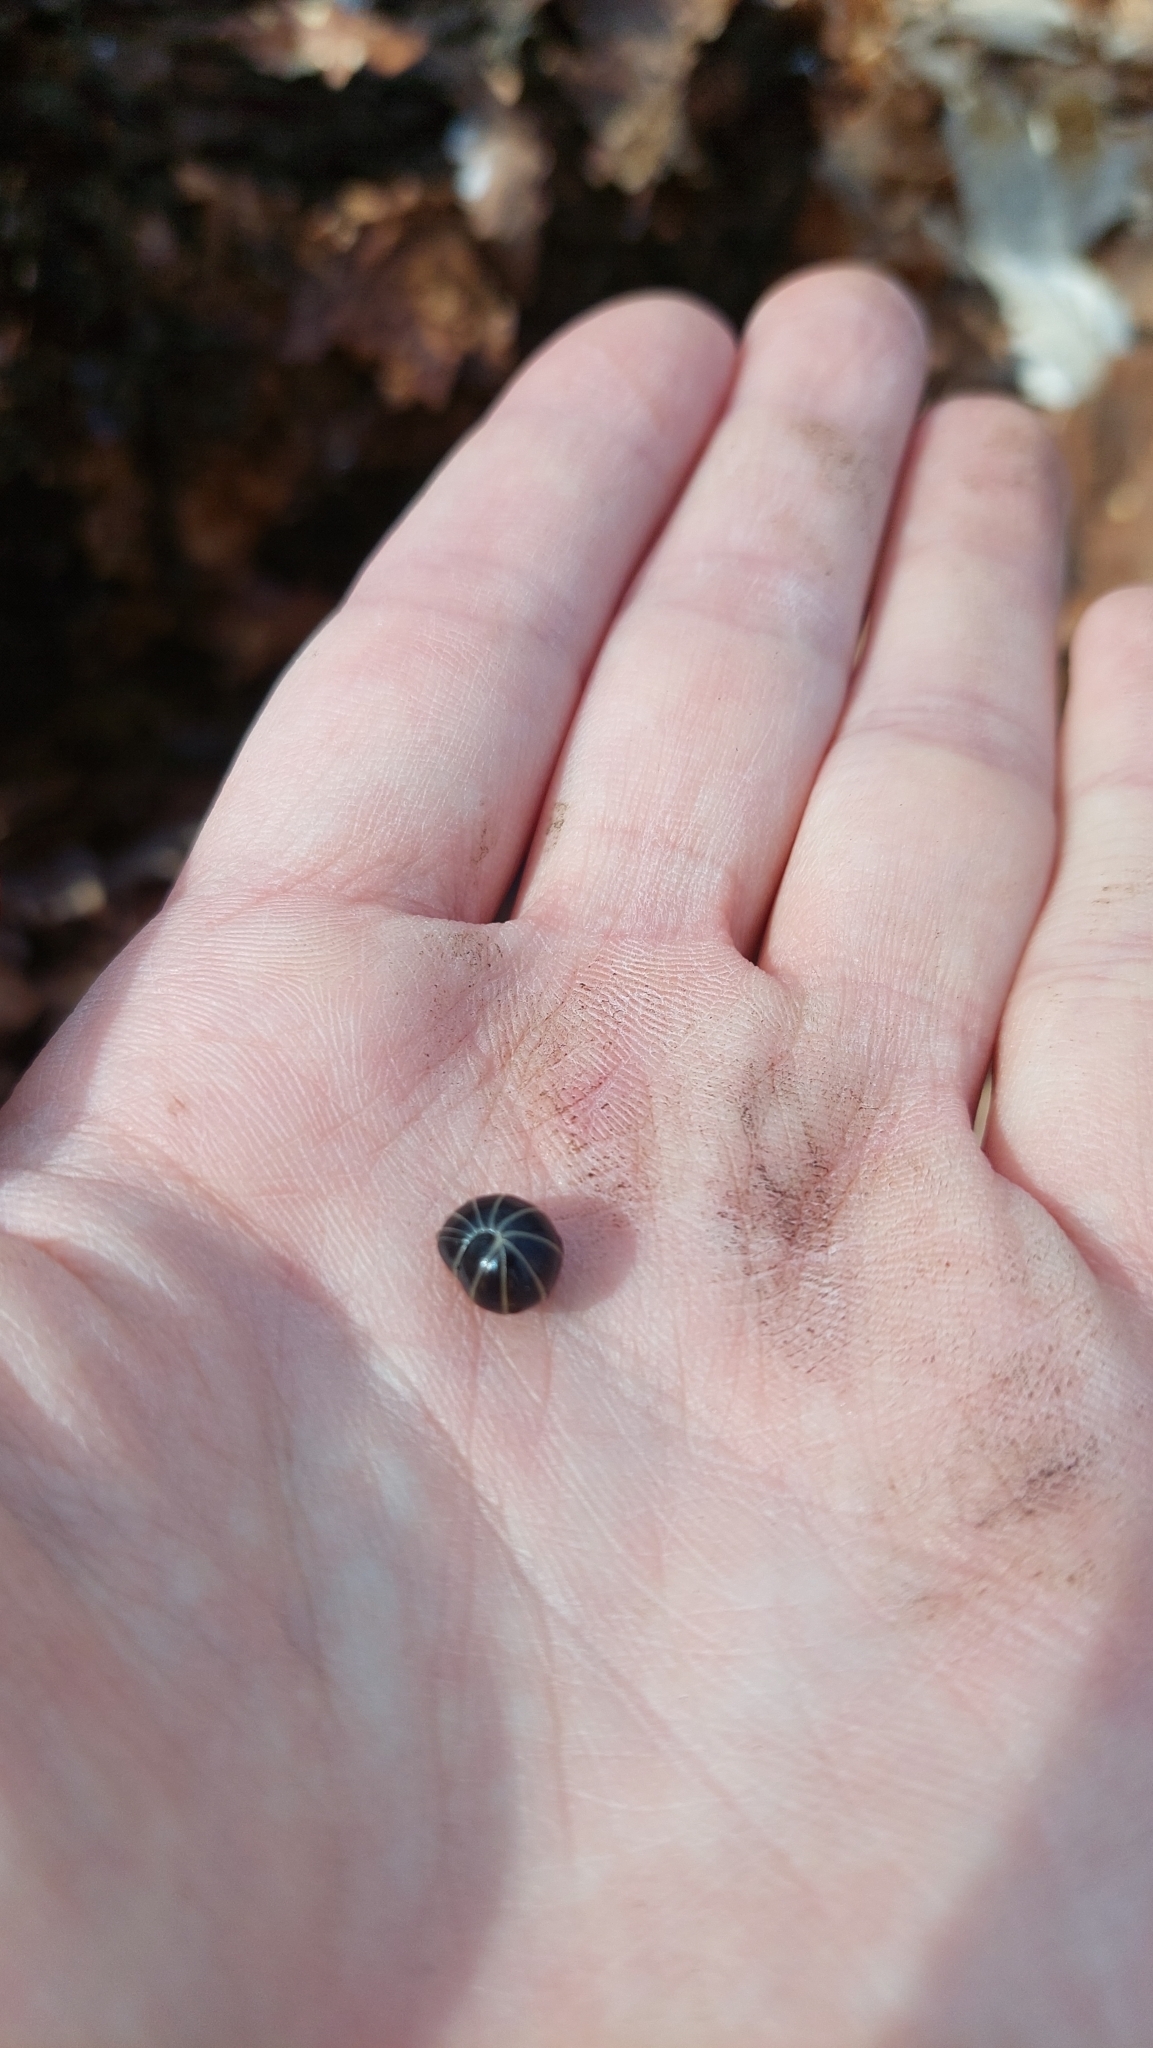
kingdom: Animalia
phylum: Arthropoda
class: Diplopoda
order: Glomerida
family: Glomeridae
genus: Glomeris
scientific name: Glomeris marginata
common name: Bordered pill millipede
